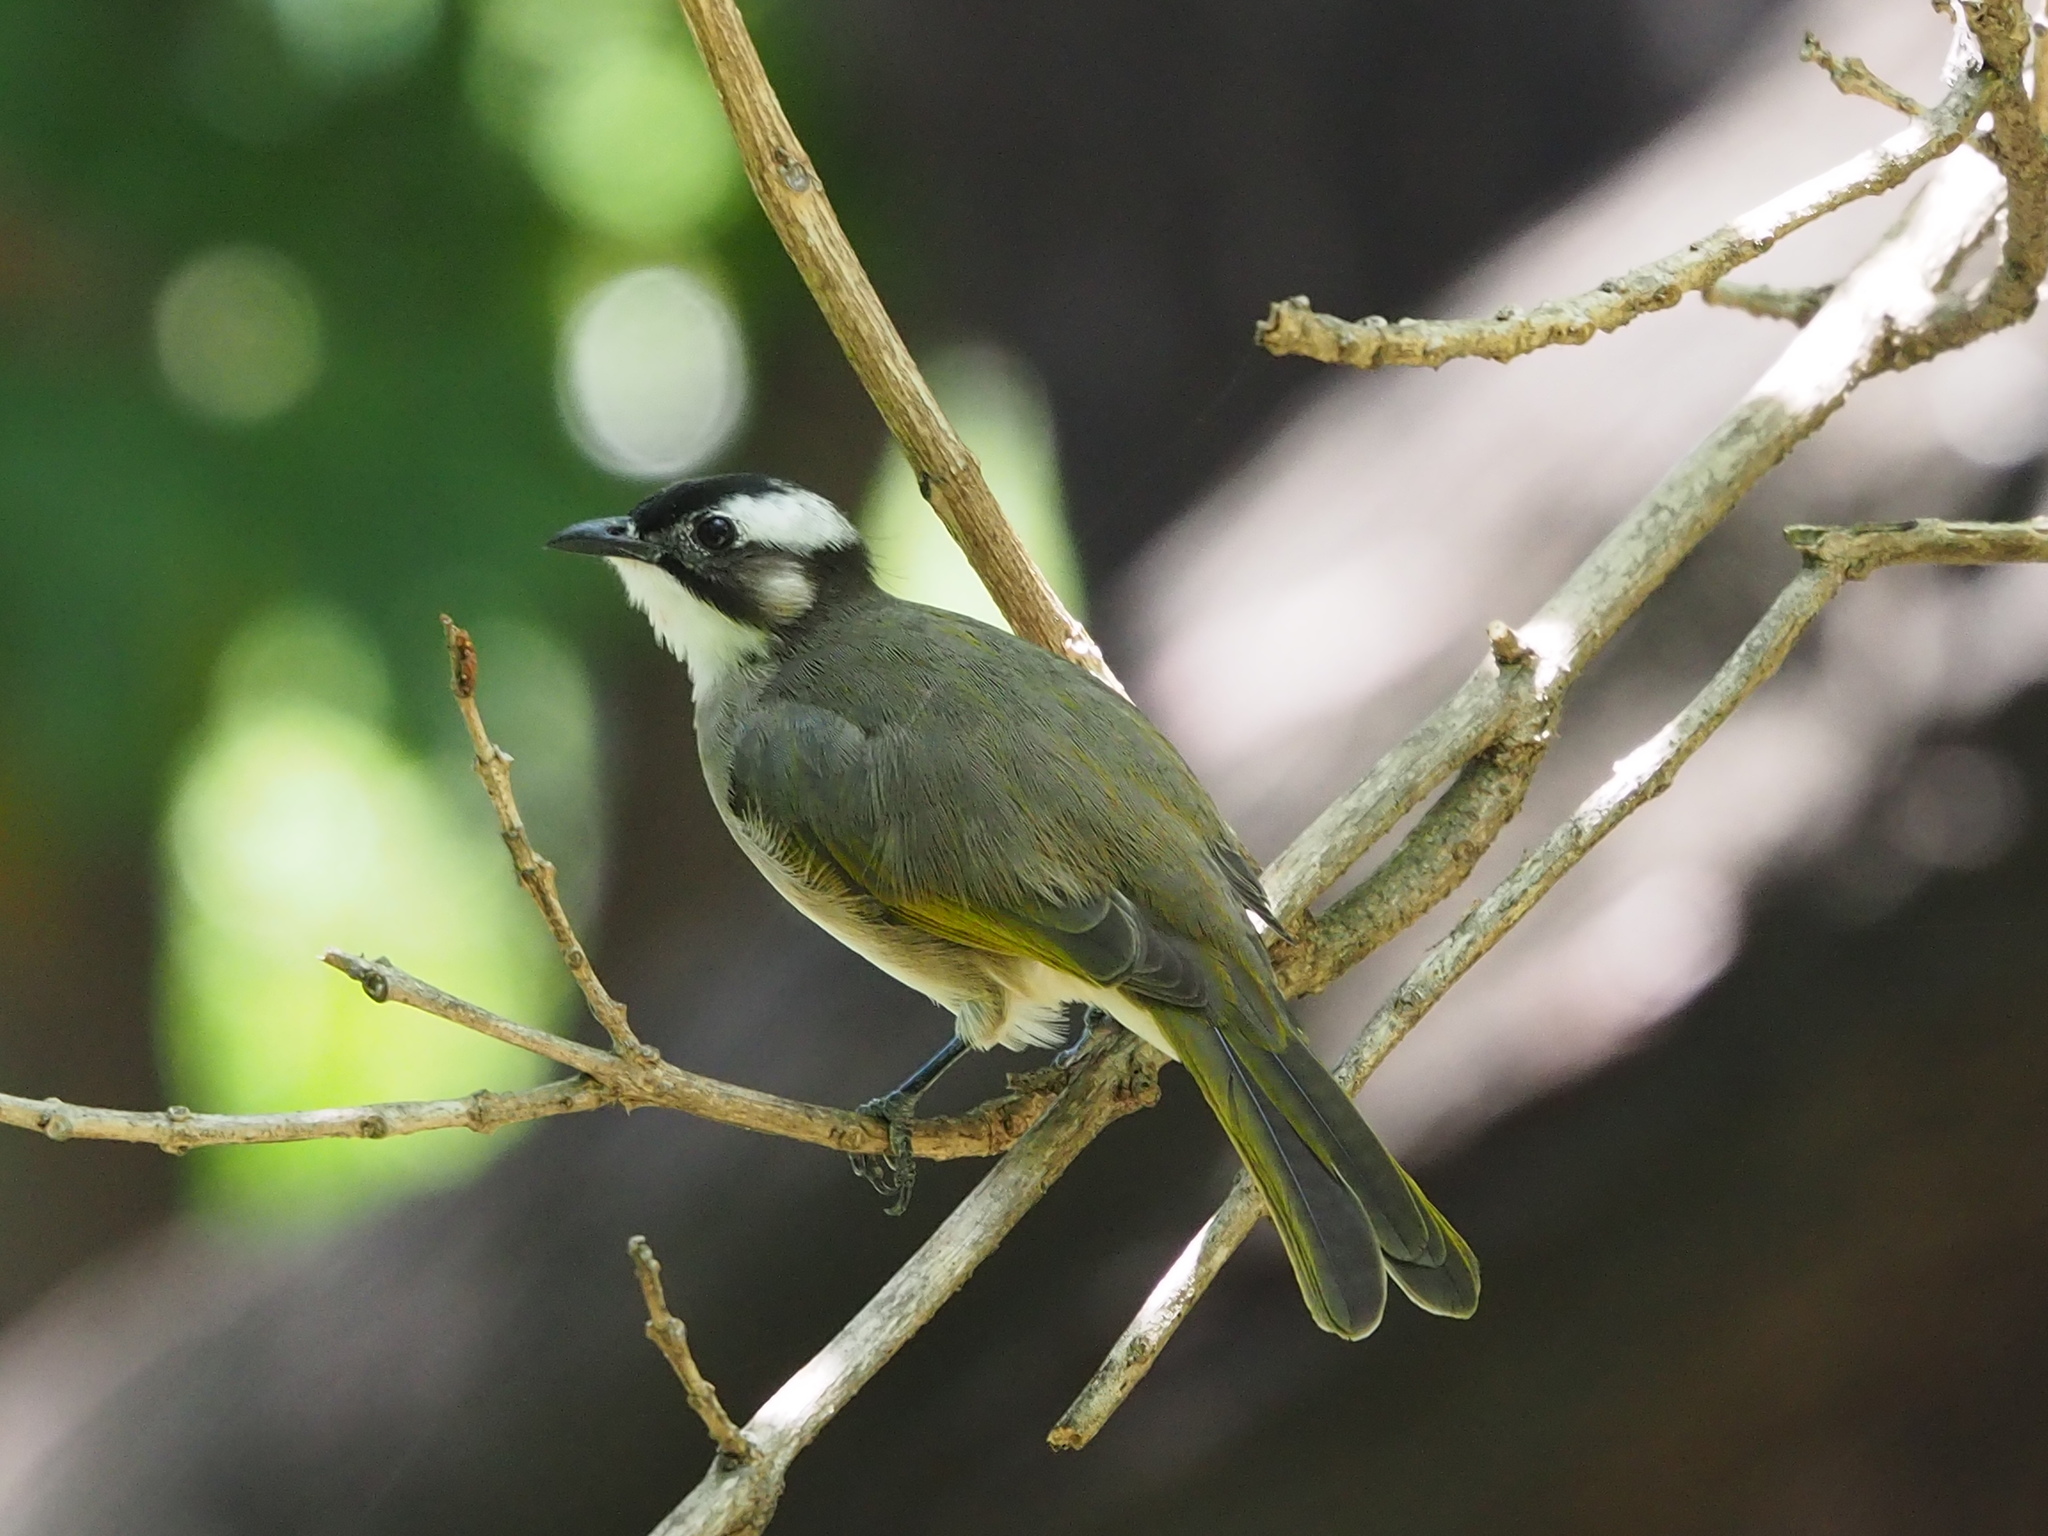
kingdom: Animalia
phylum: Chordata
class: Aves
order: Passeriformes
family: Pycnonotidae
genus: Pycnonotus
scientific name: Pycnonotus sinensis
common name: Light-vented bulbul
